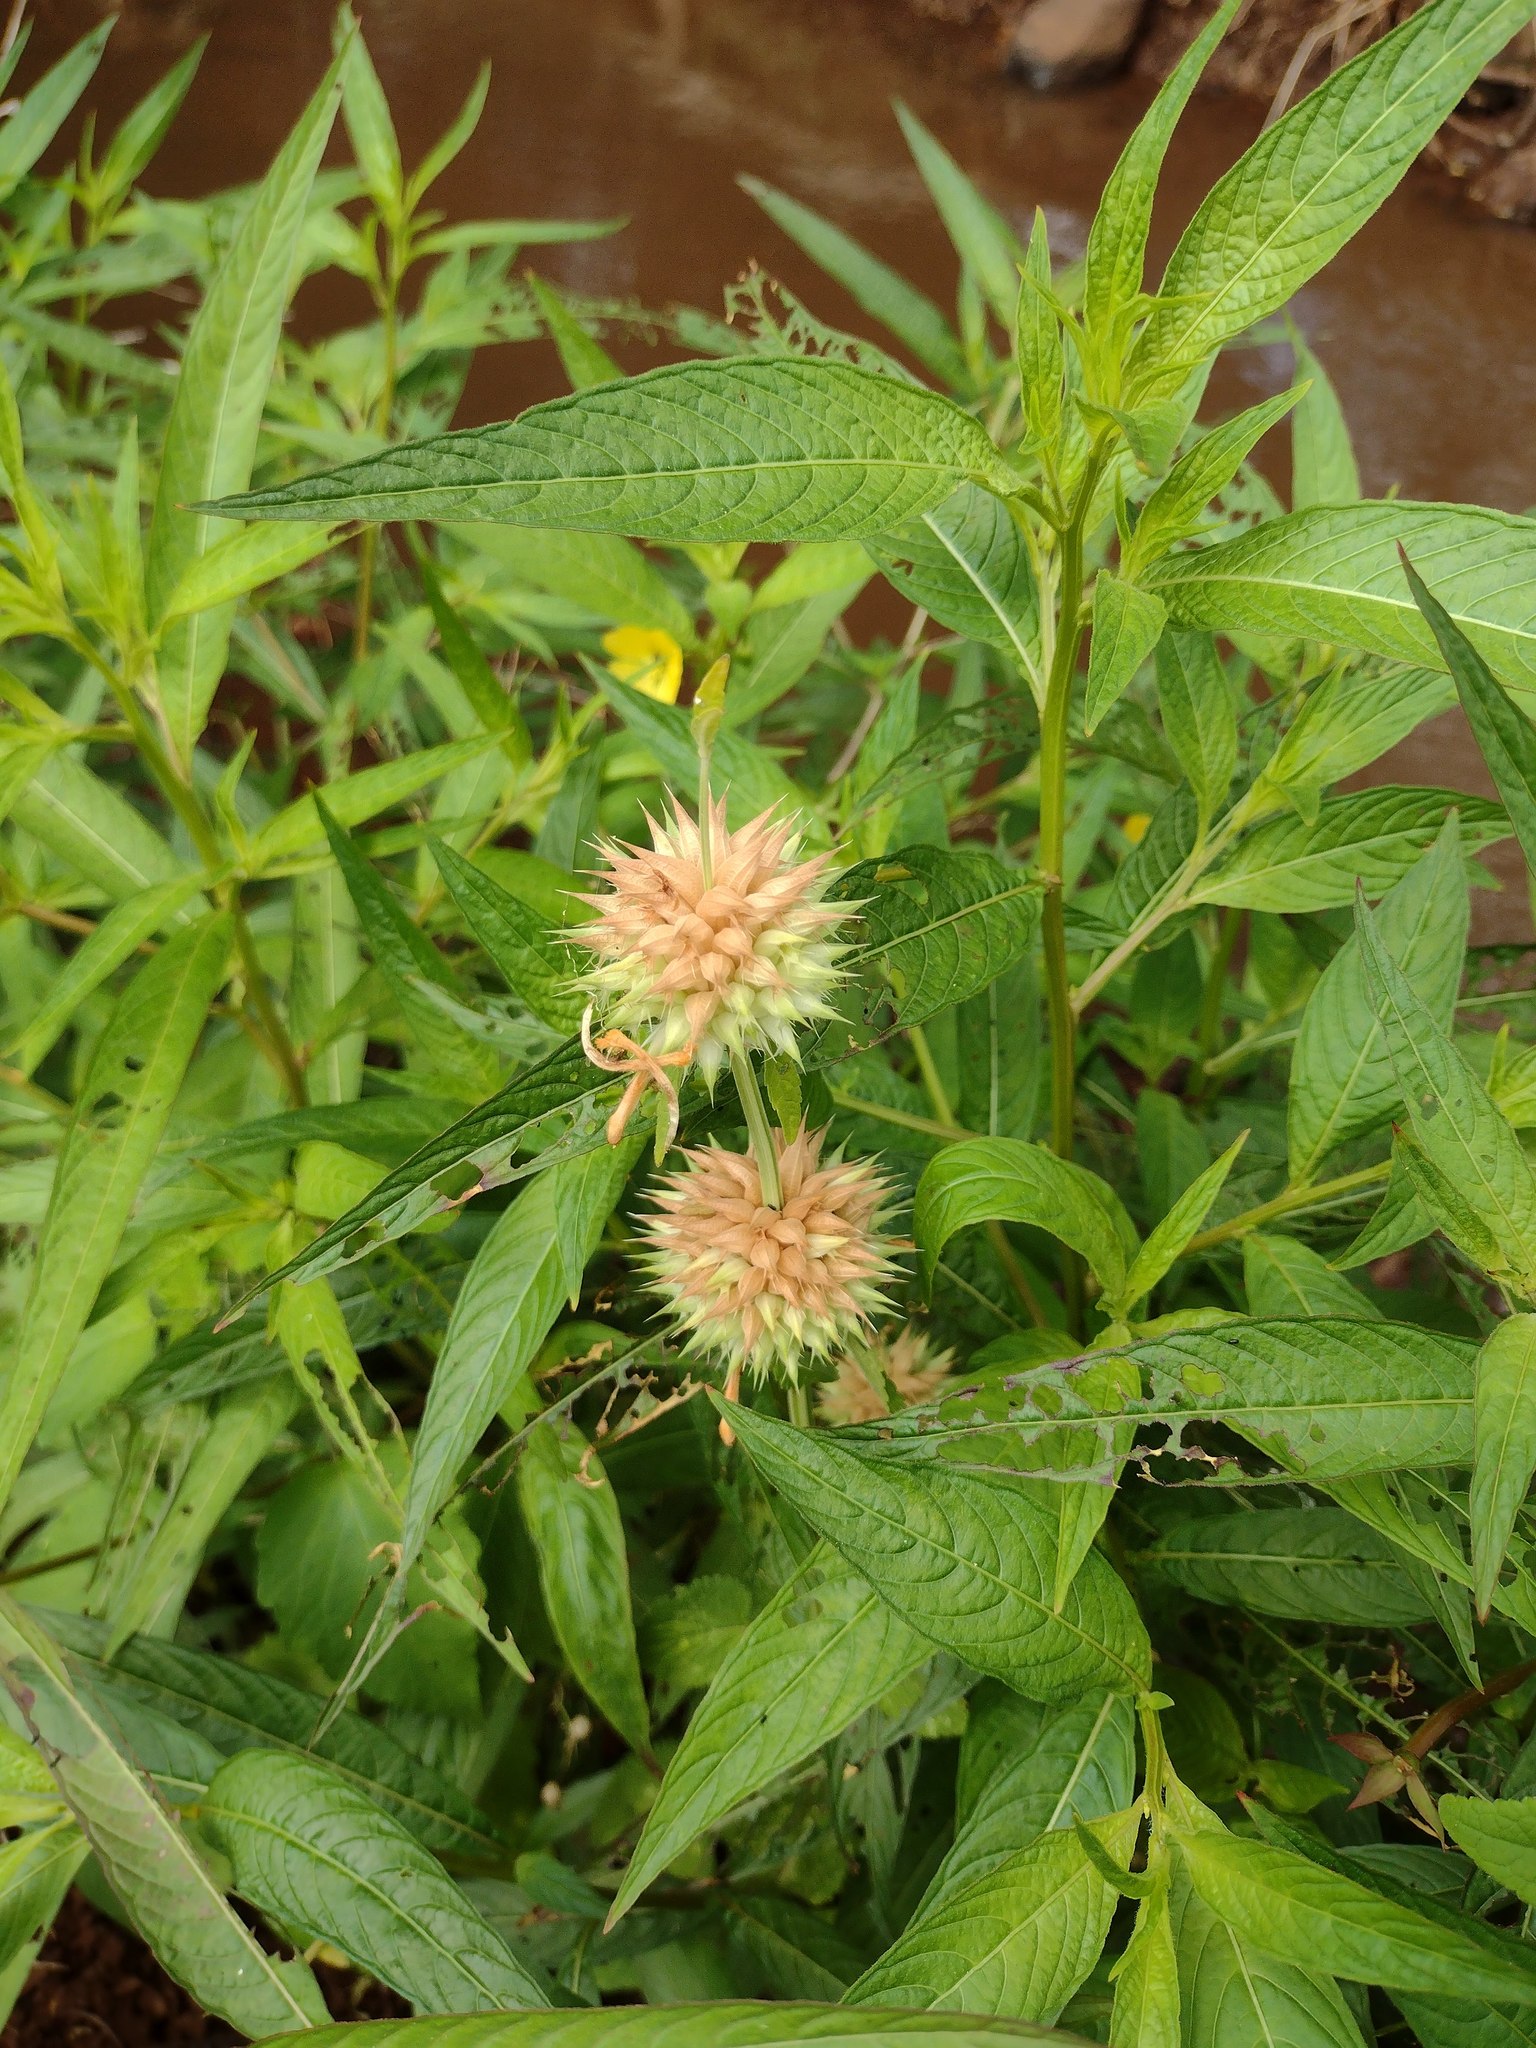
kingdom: Plantae
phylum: Tracheophyta
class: Magnoliopsida
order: Lamiales
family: Lamiaceae
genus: Leonotis
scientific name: Leonotis nepetifolia
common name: Christmas candlestick
